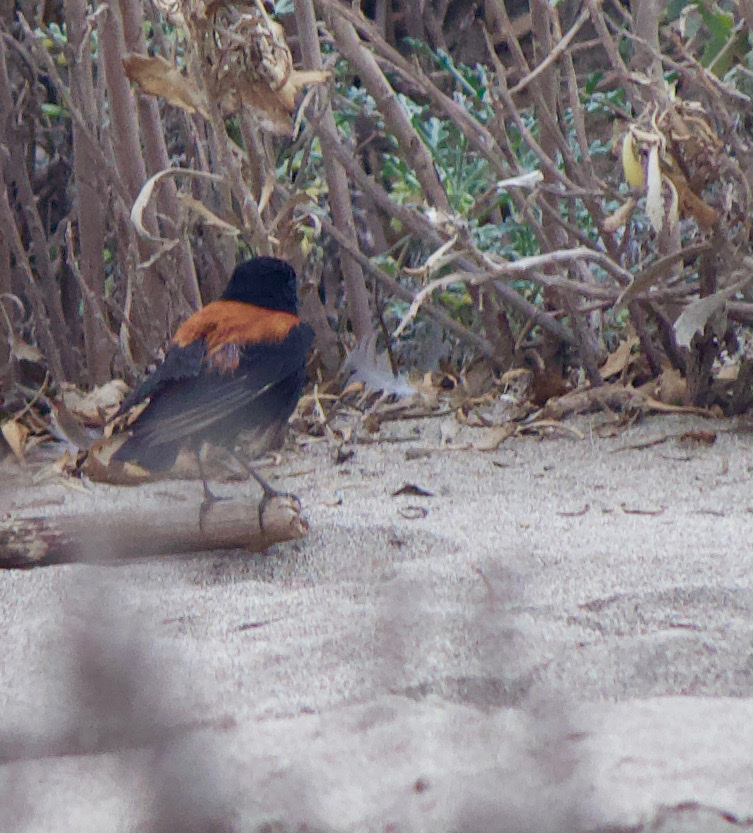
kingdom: Animalia
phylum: Chordata
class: Aves
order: Passeriformes
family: Tyrannidae
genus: Lessonia
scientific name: Lessonia rufa
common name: Austral negrito
